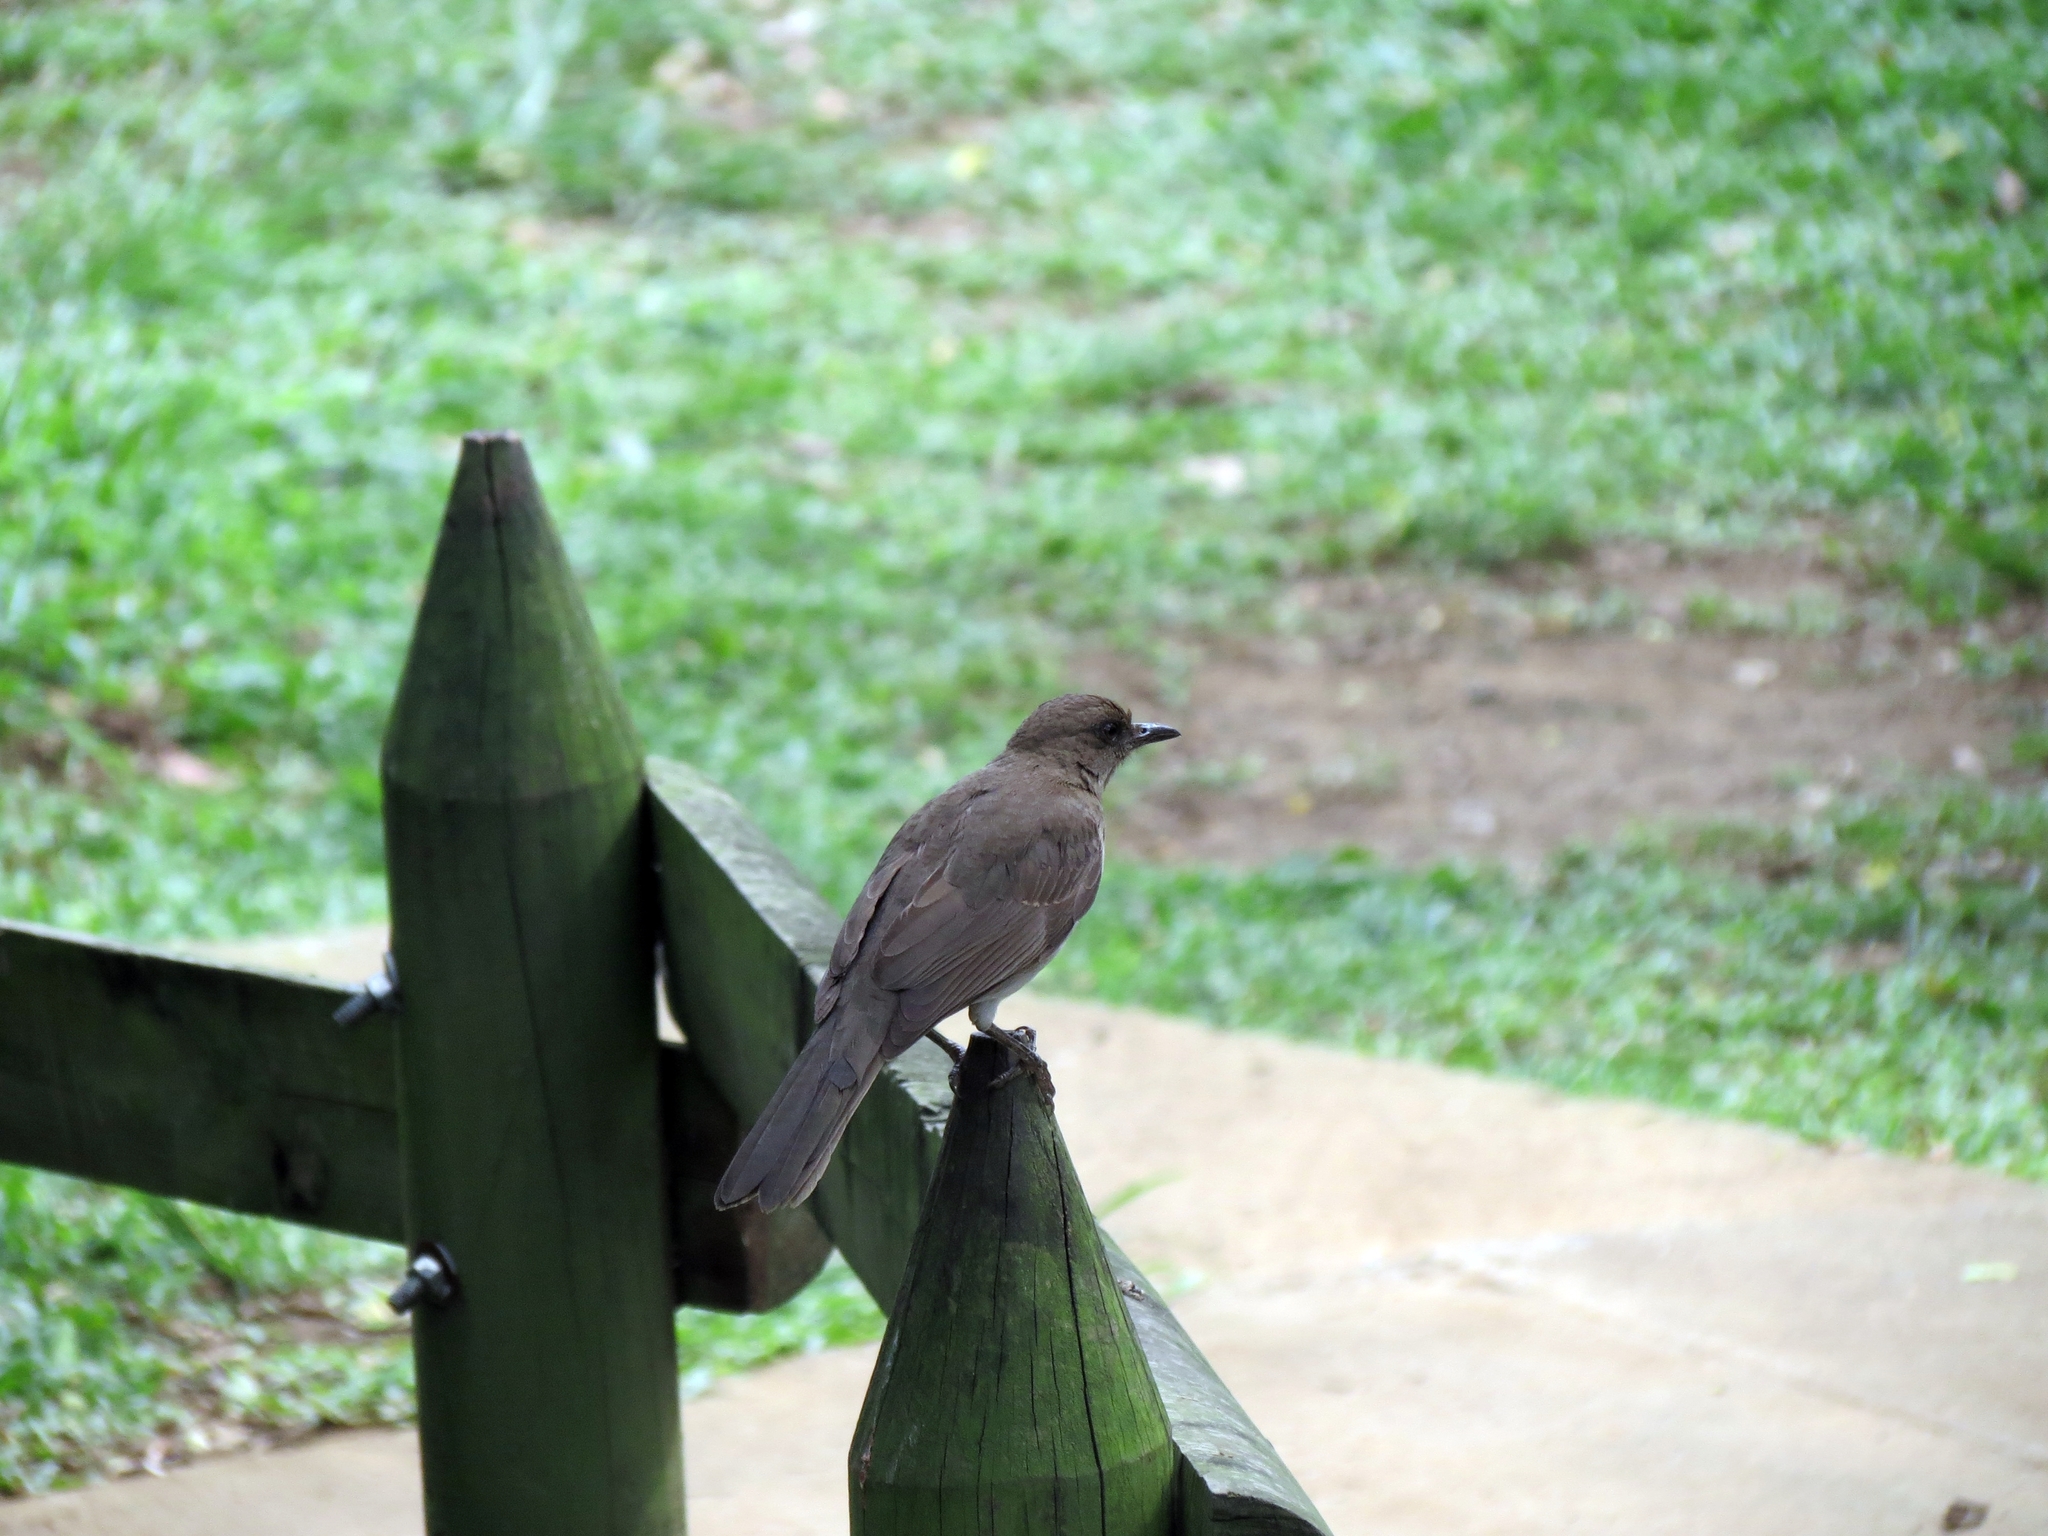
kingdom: Animalia
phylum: Chordata
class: Aves
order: Passeriformes
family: Turdidae
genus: Turdus
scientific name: Turdus ignobilis
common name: Black-billed thrush
